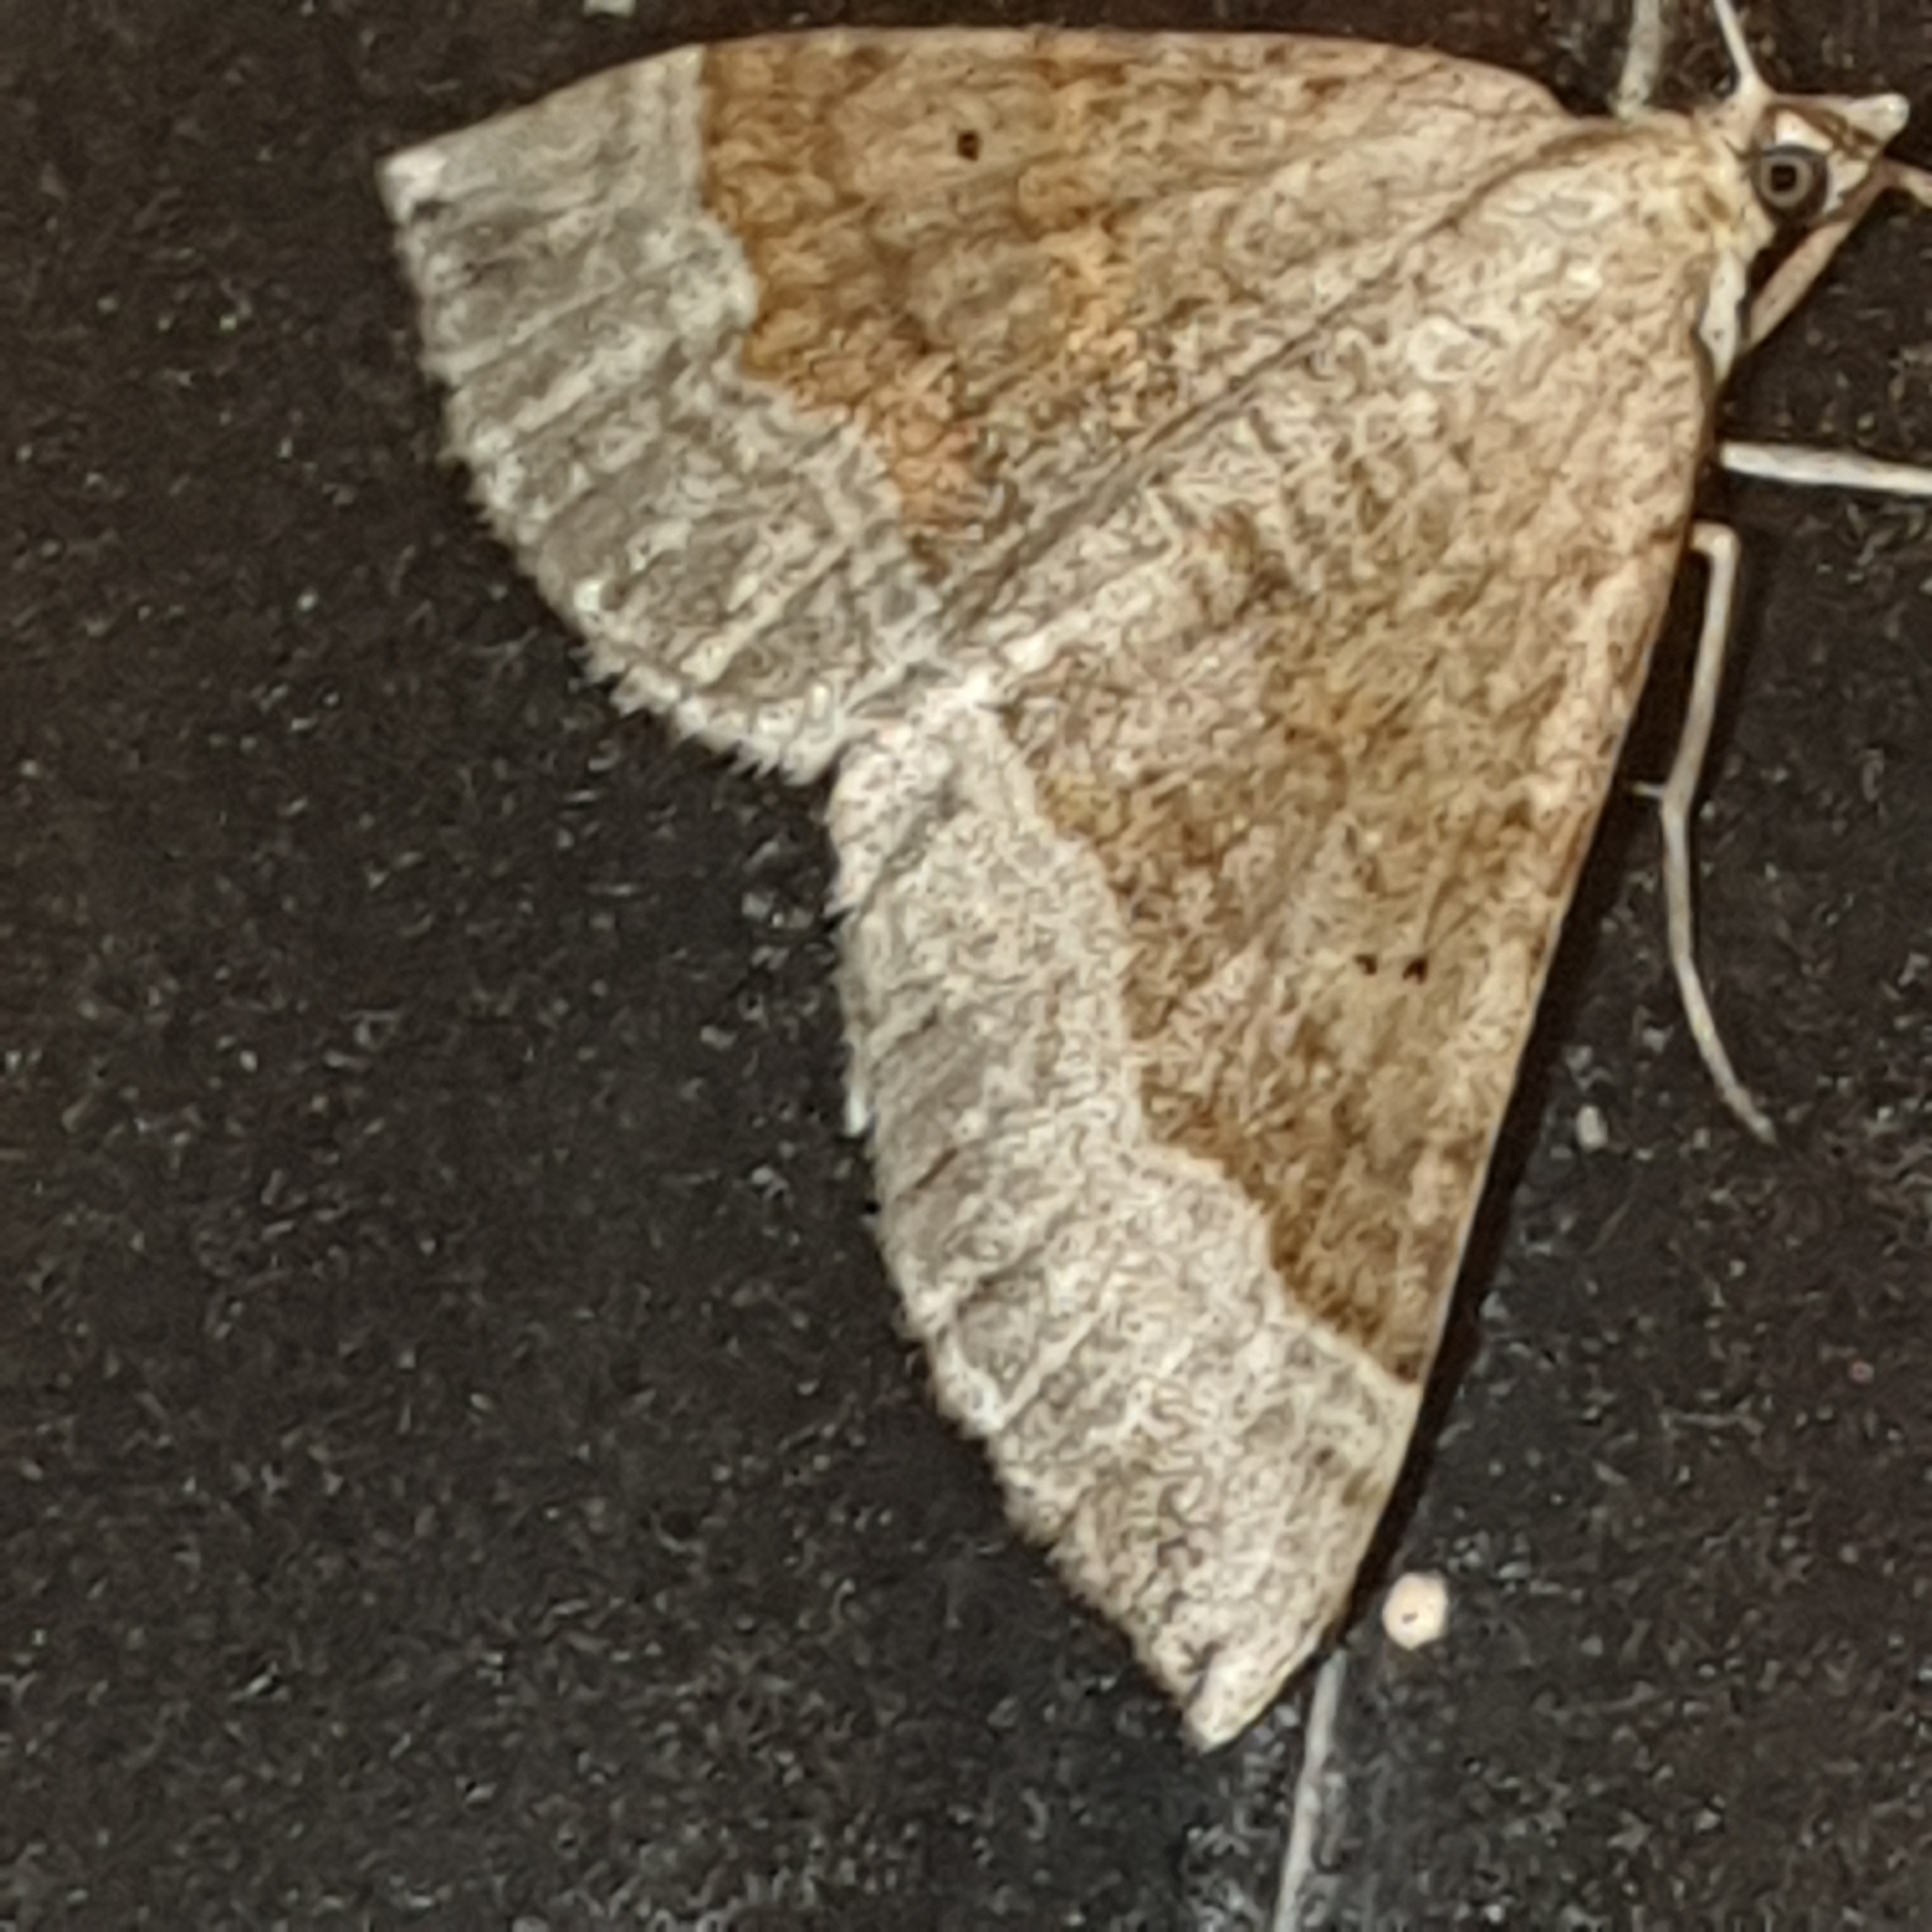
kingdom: Animalia
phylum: Arthropoda
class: Insecta
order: Lepidoptera
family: Geometridae
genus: Scotopteryx
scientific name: Scotopteryx chenopodiata
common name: Shaded broad-bar
